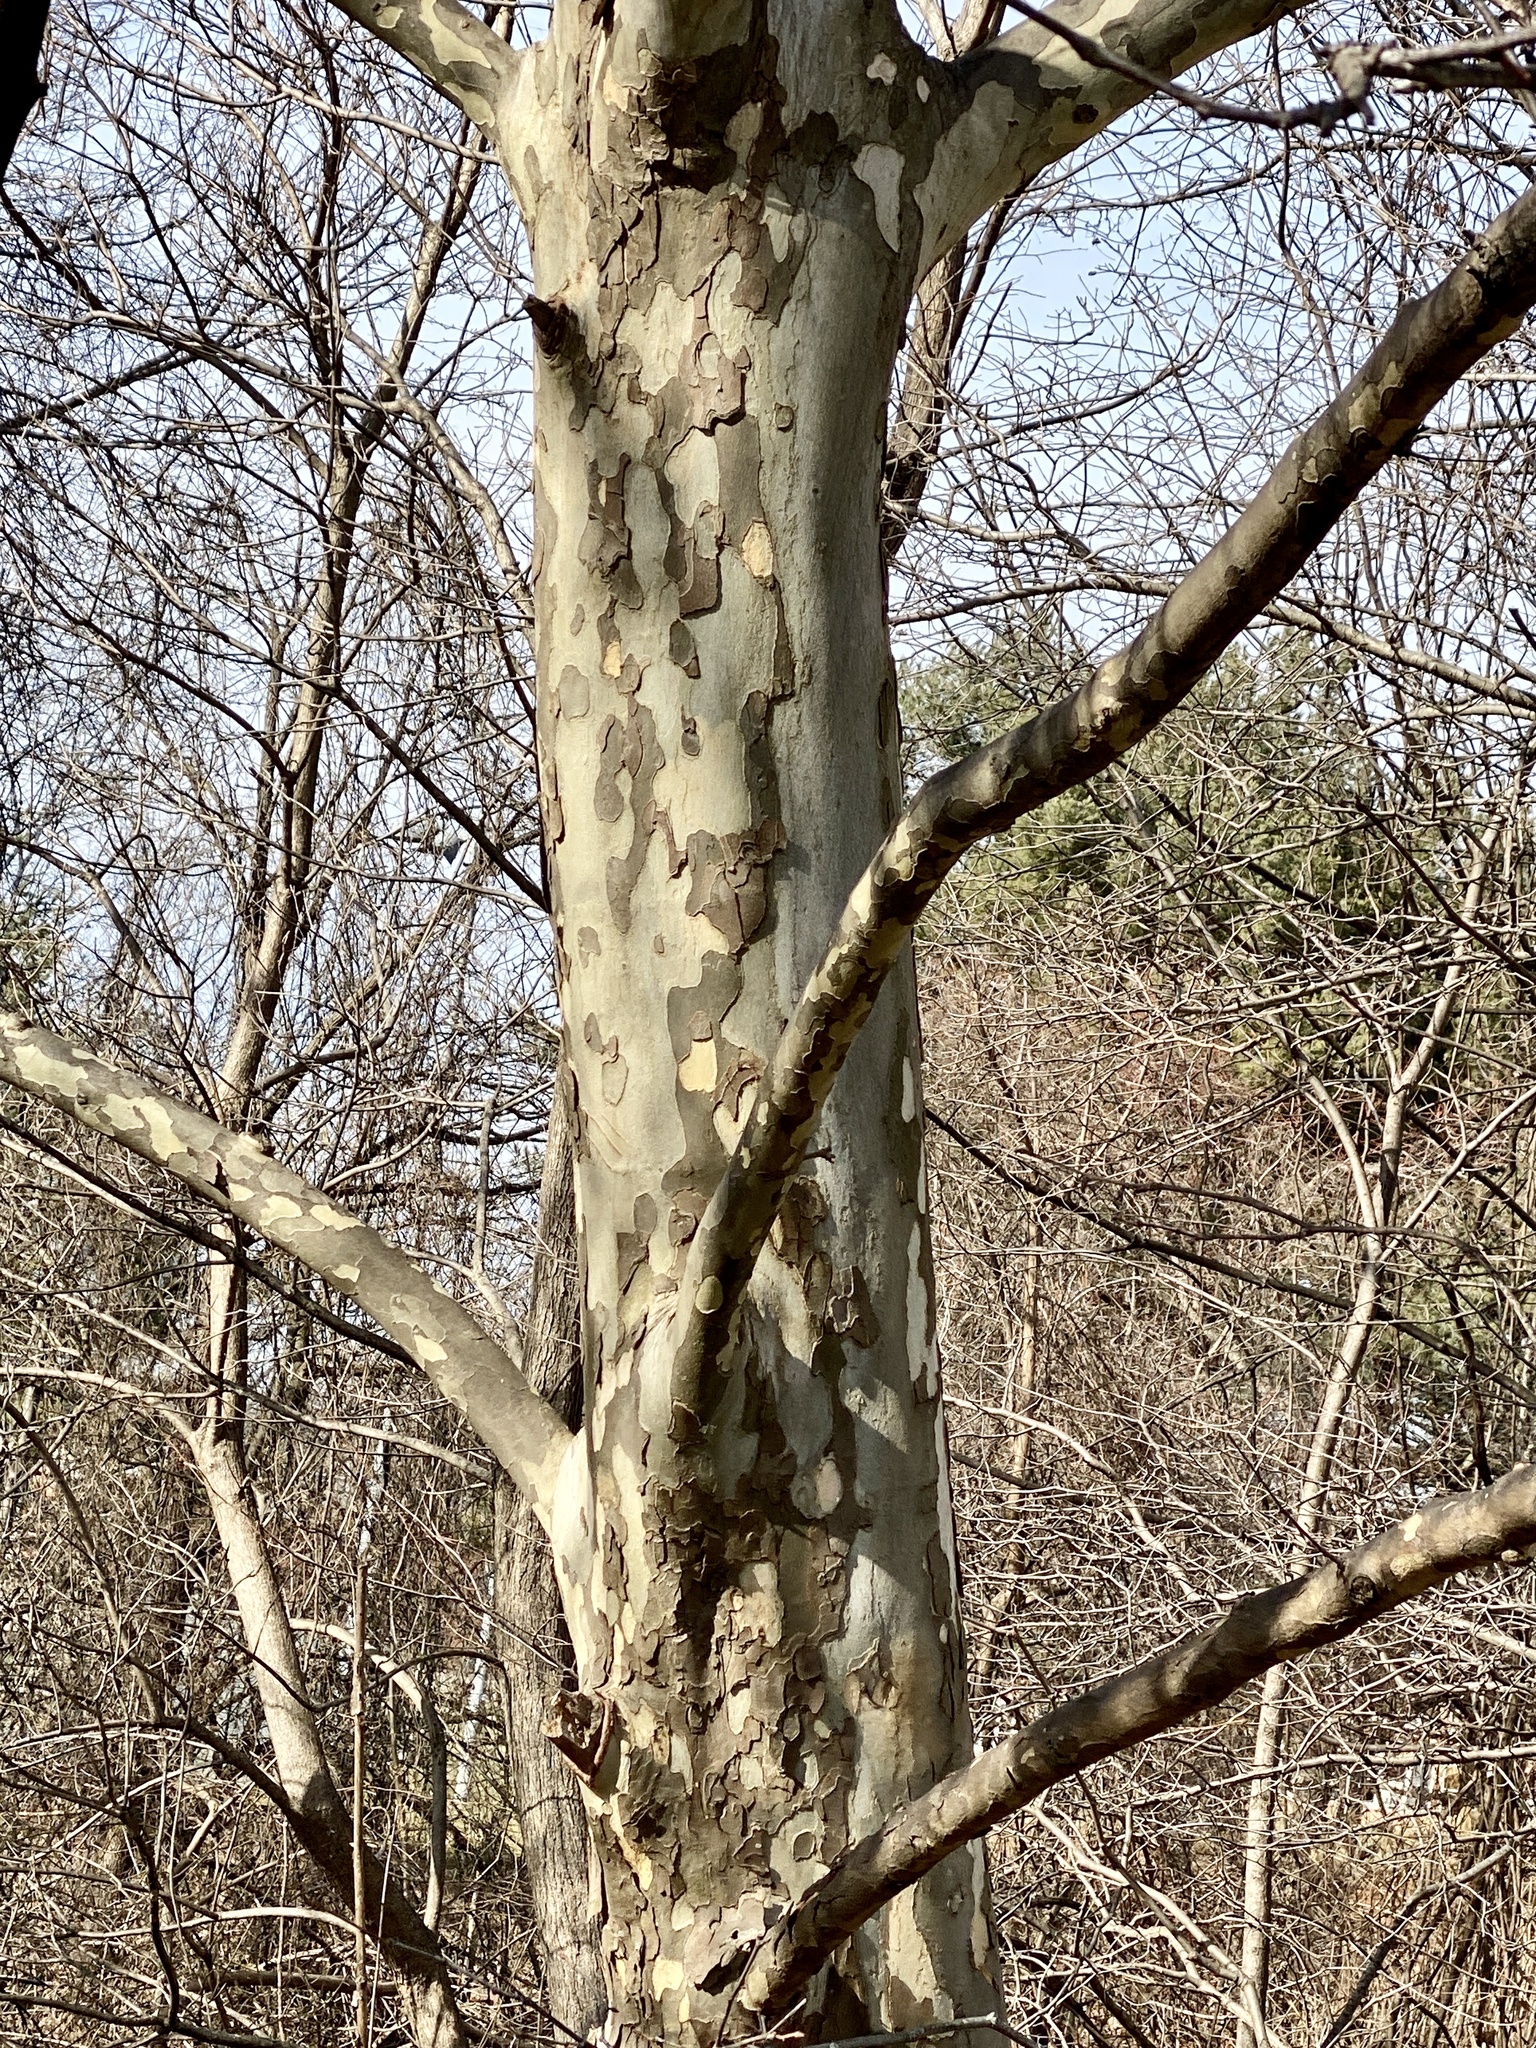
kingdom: Plantae
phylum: Tracheophyta
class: Magnoliopsida
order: Proteales
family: Platanaceae
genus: Platanus
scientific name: Platanus occidentalis
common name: American sycamore
